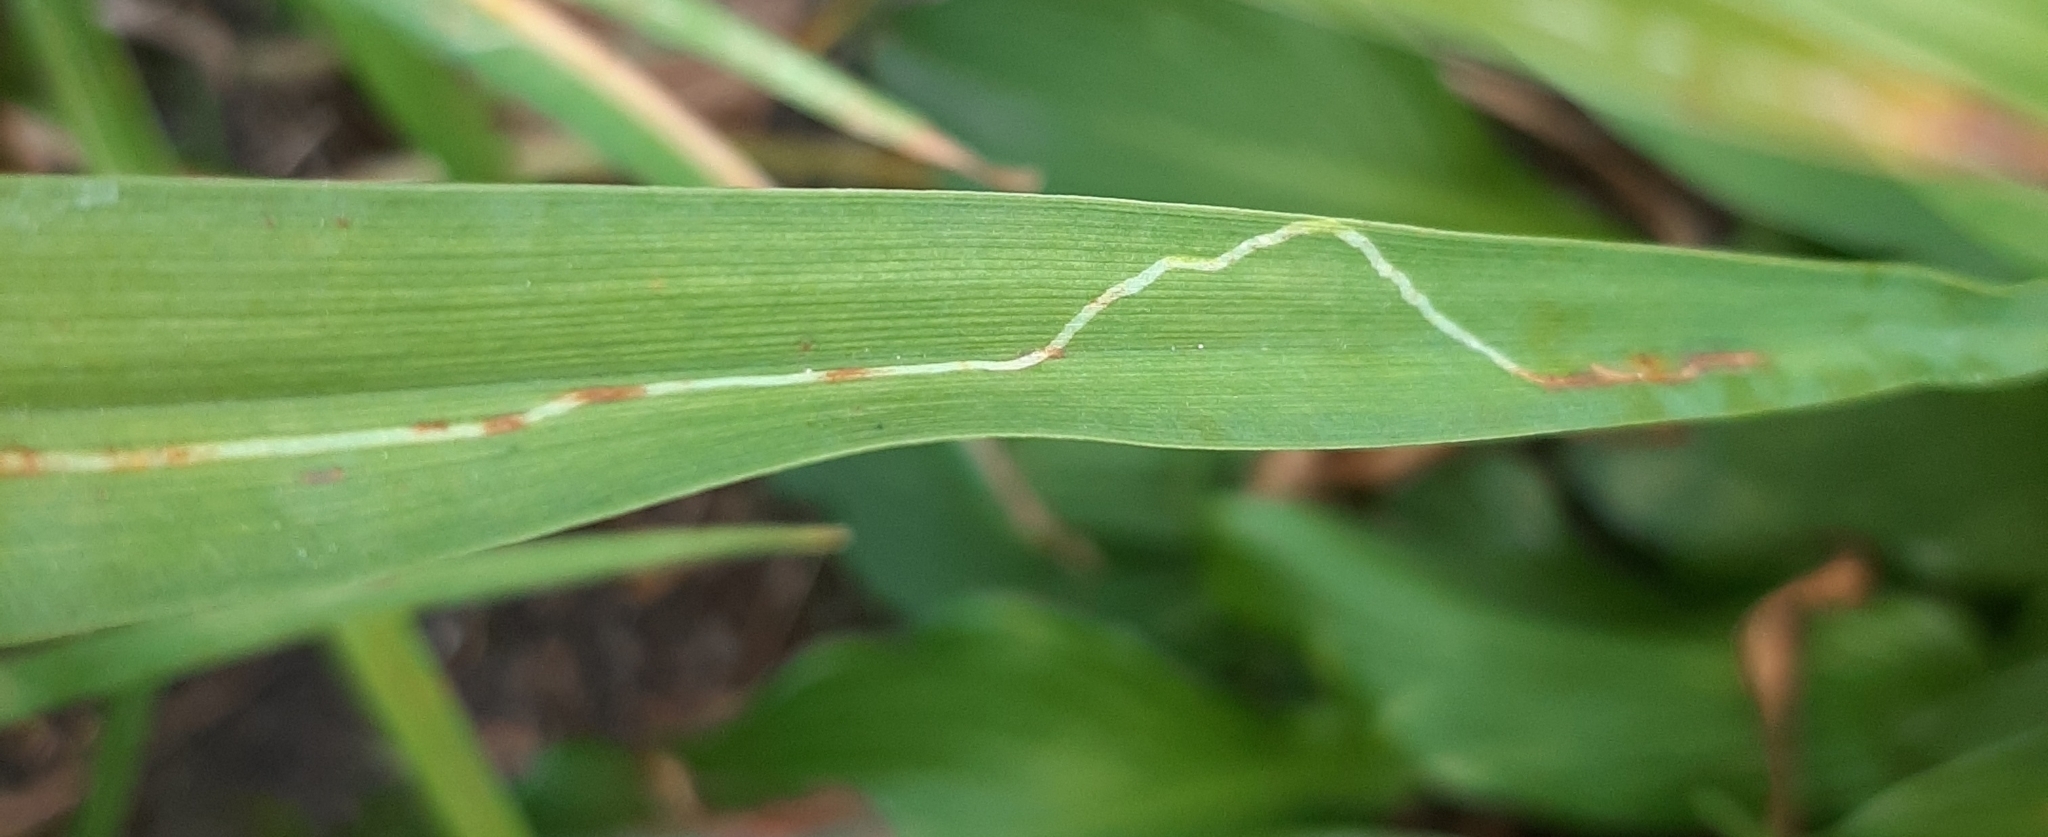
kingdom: Animalia
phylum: Arthropoda
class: Insecta
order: Diptera
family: Agromyzidae
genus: Ophiomyia
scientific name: Ophiomyia kwansonis
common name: Daylily leafminer
